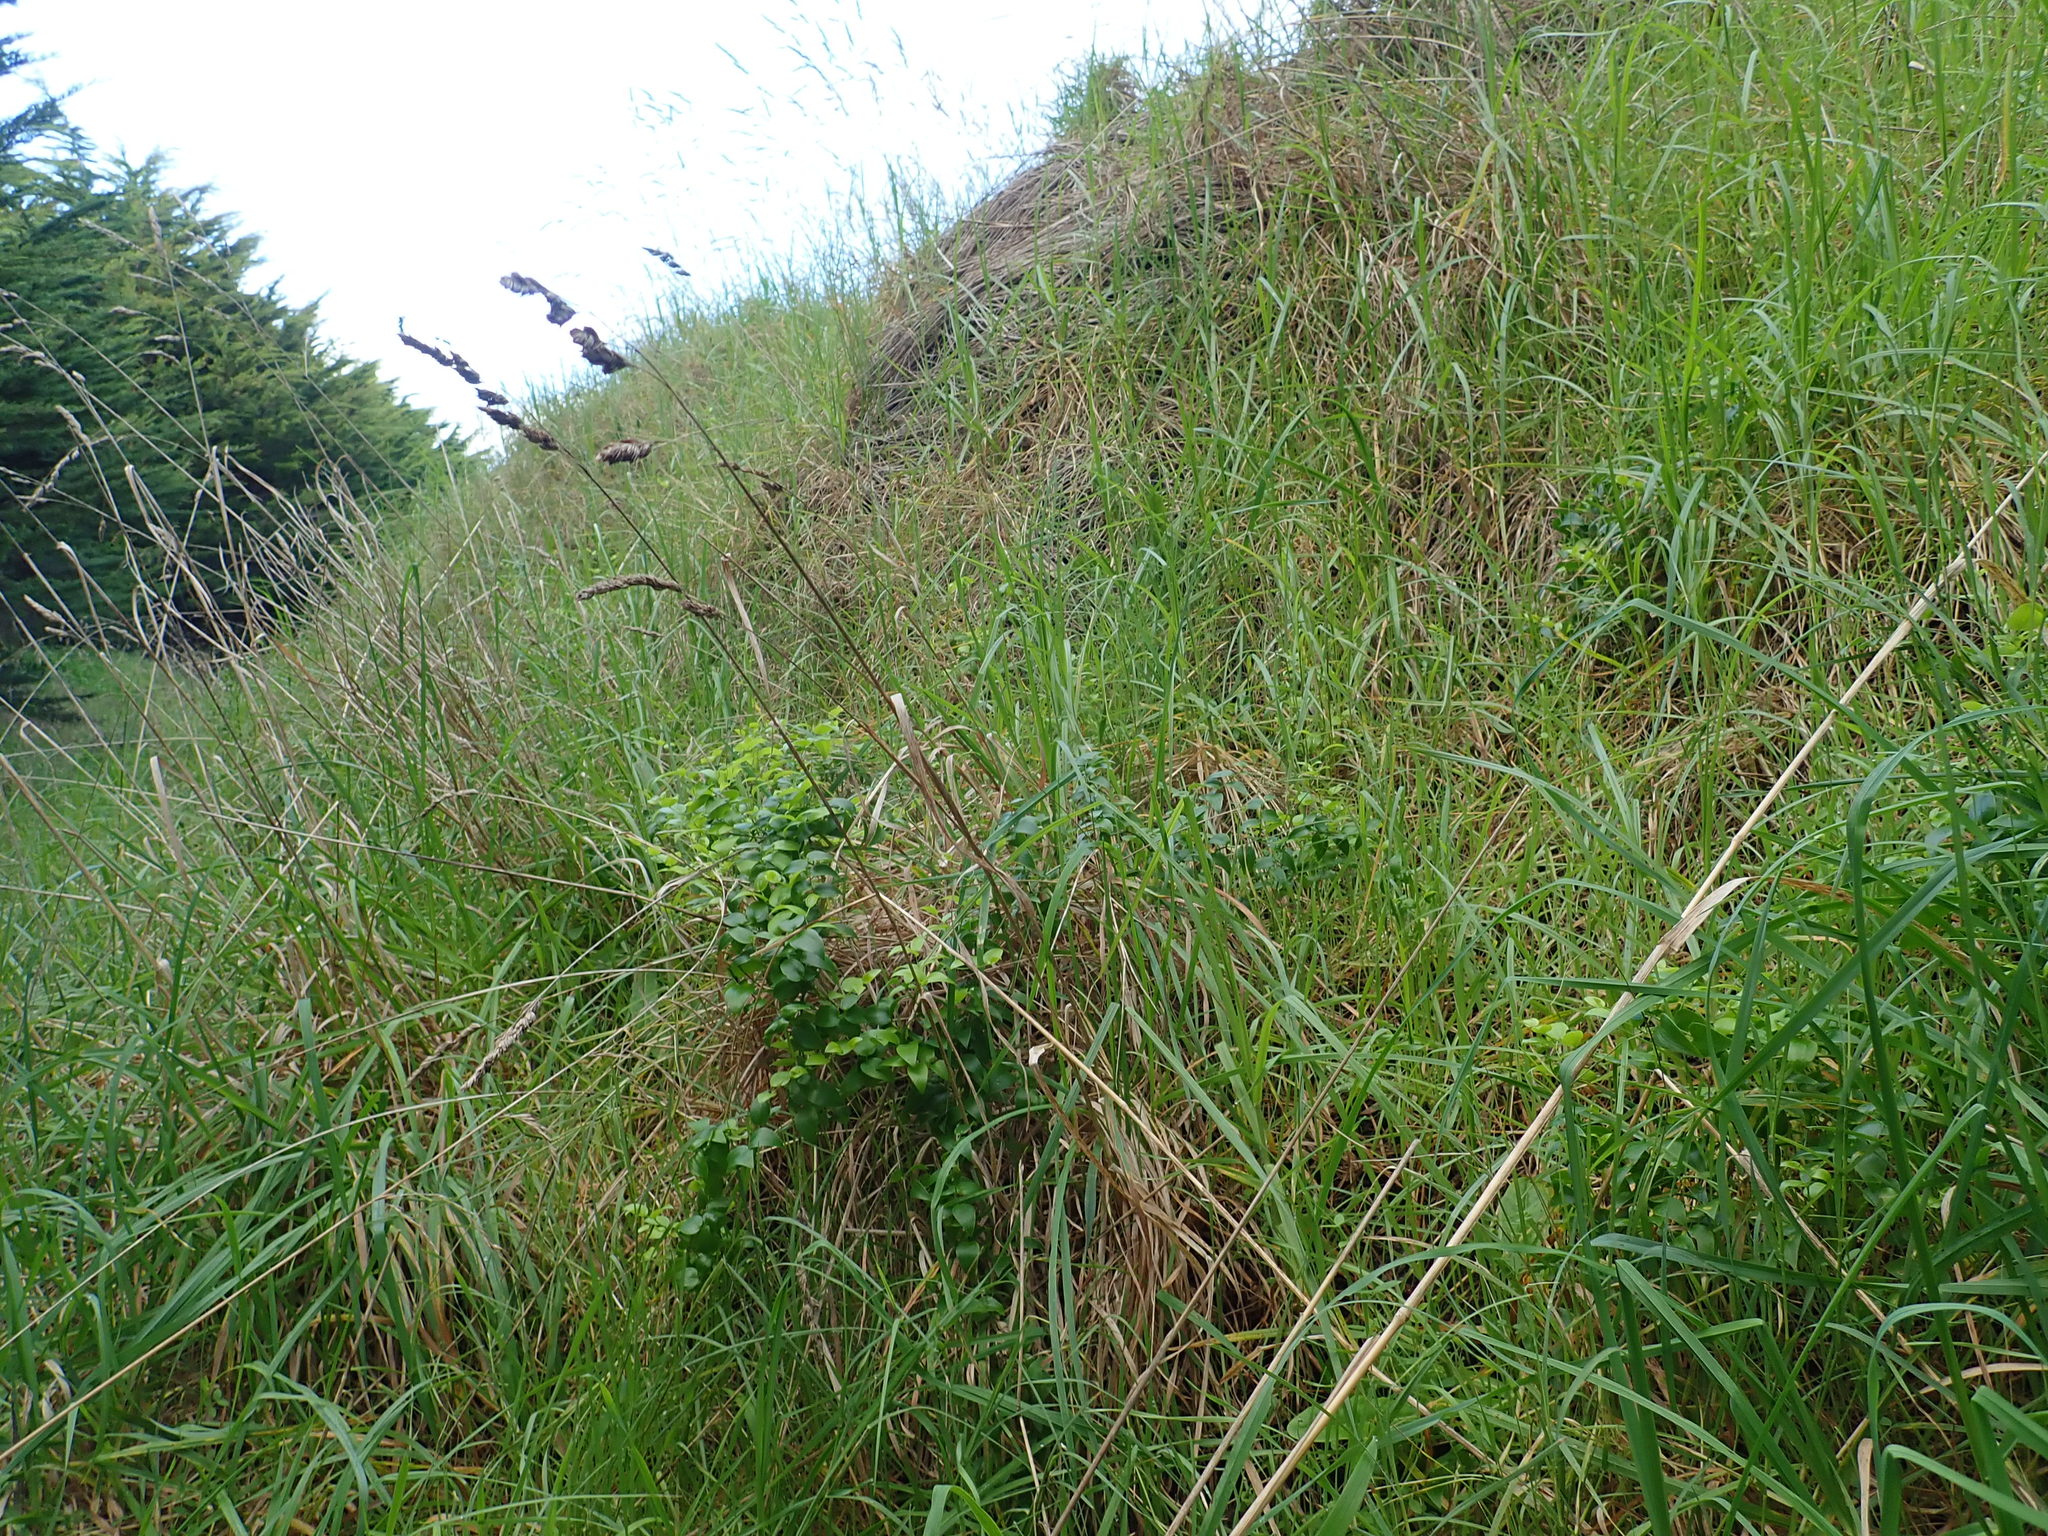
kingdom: Plantae
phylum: Tracheophyta
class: Liliopsida
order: Asparagales
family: Asparagaceae
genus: Asparagus
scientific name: Asparagus asparagoides
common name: African asparagus fern
